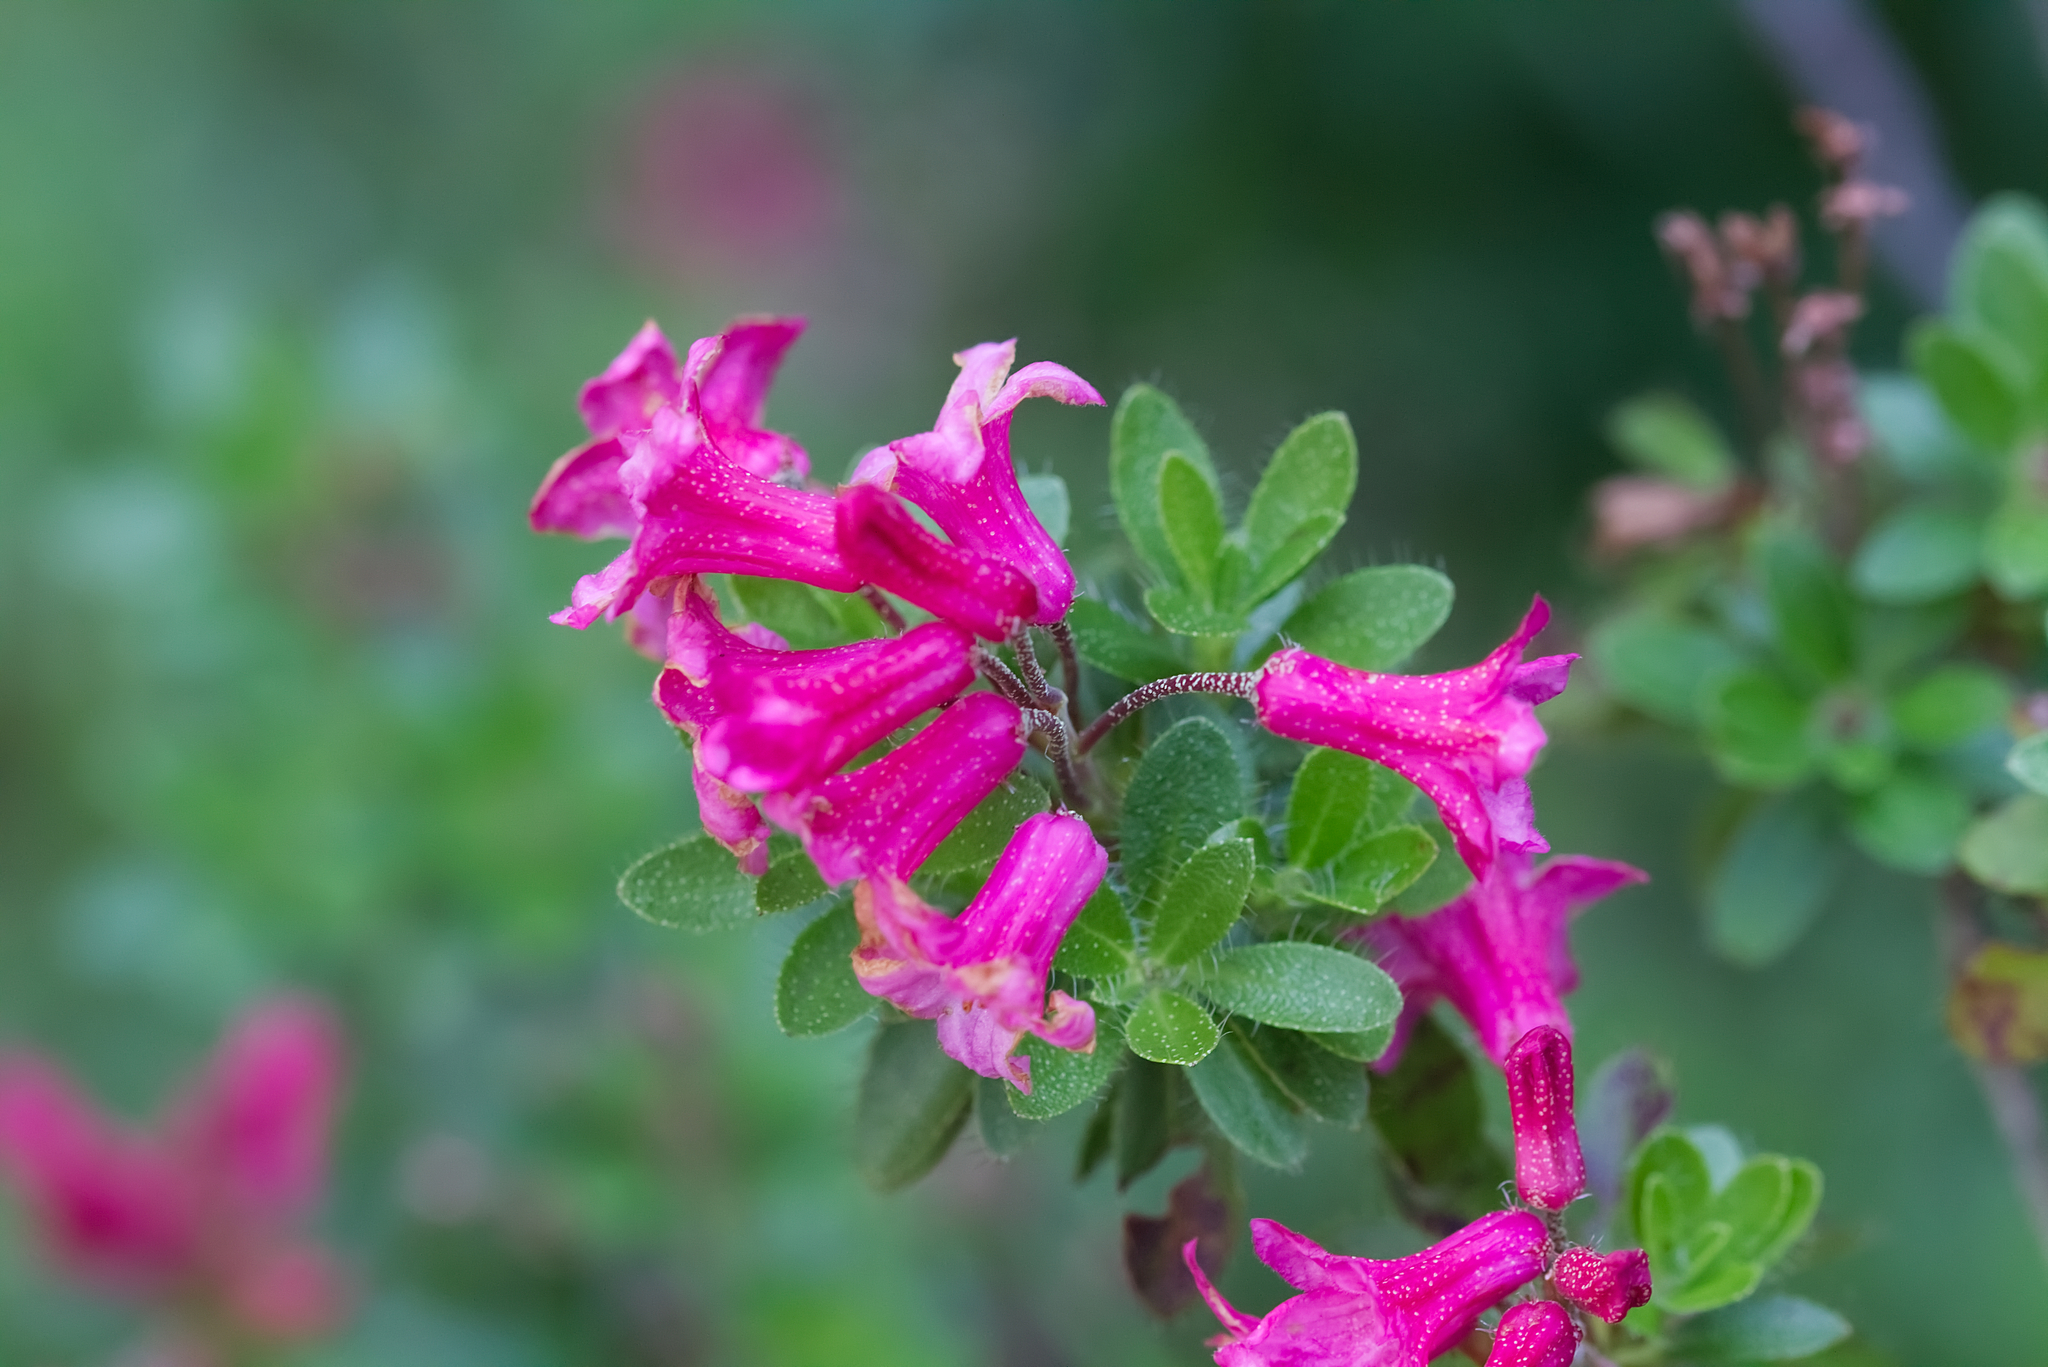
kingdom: Plantae
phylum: Tracheophyta
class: Magnoliopsida
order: Ericales
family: Ericaceae
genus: Rhododendron
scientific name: Rhododendron hirsutum
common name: Hairy alpenrose
